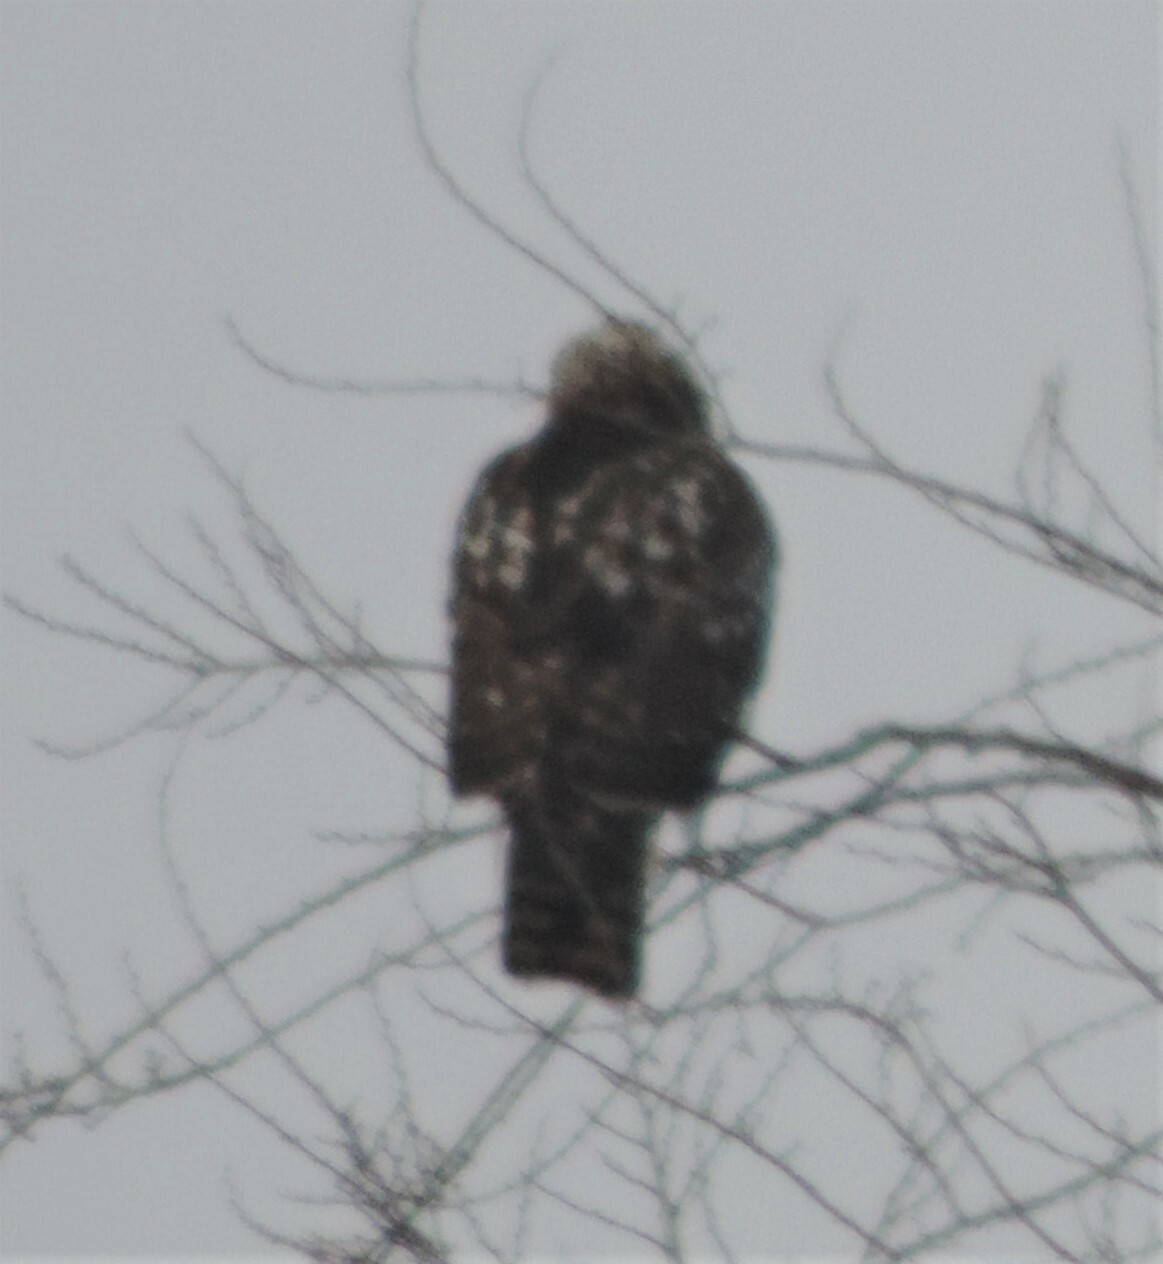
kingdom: Animalia
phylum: Chordata
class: Aves
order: Accipitriformes
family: Accipitridae
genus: Buteo
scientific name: Buteo lagopus
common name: Rough-legged buzzard
